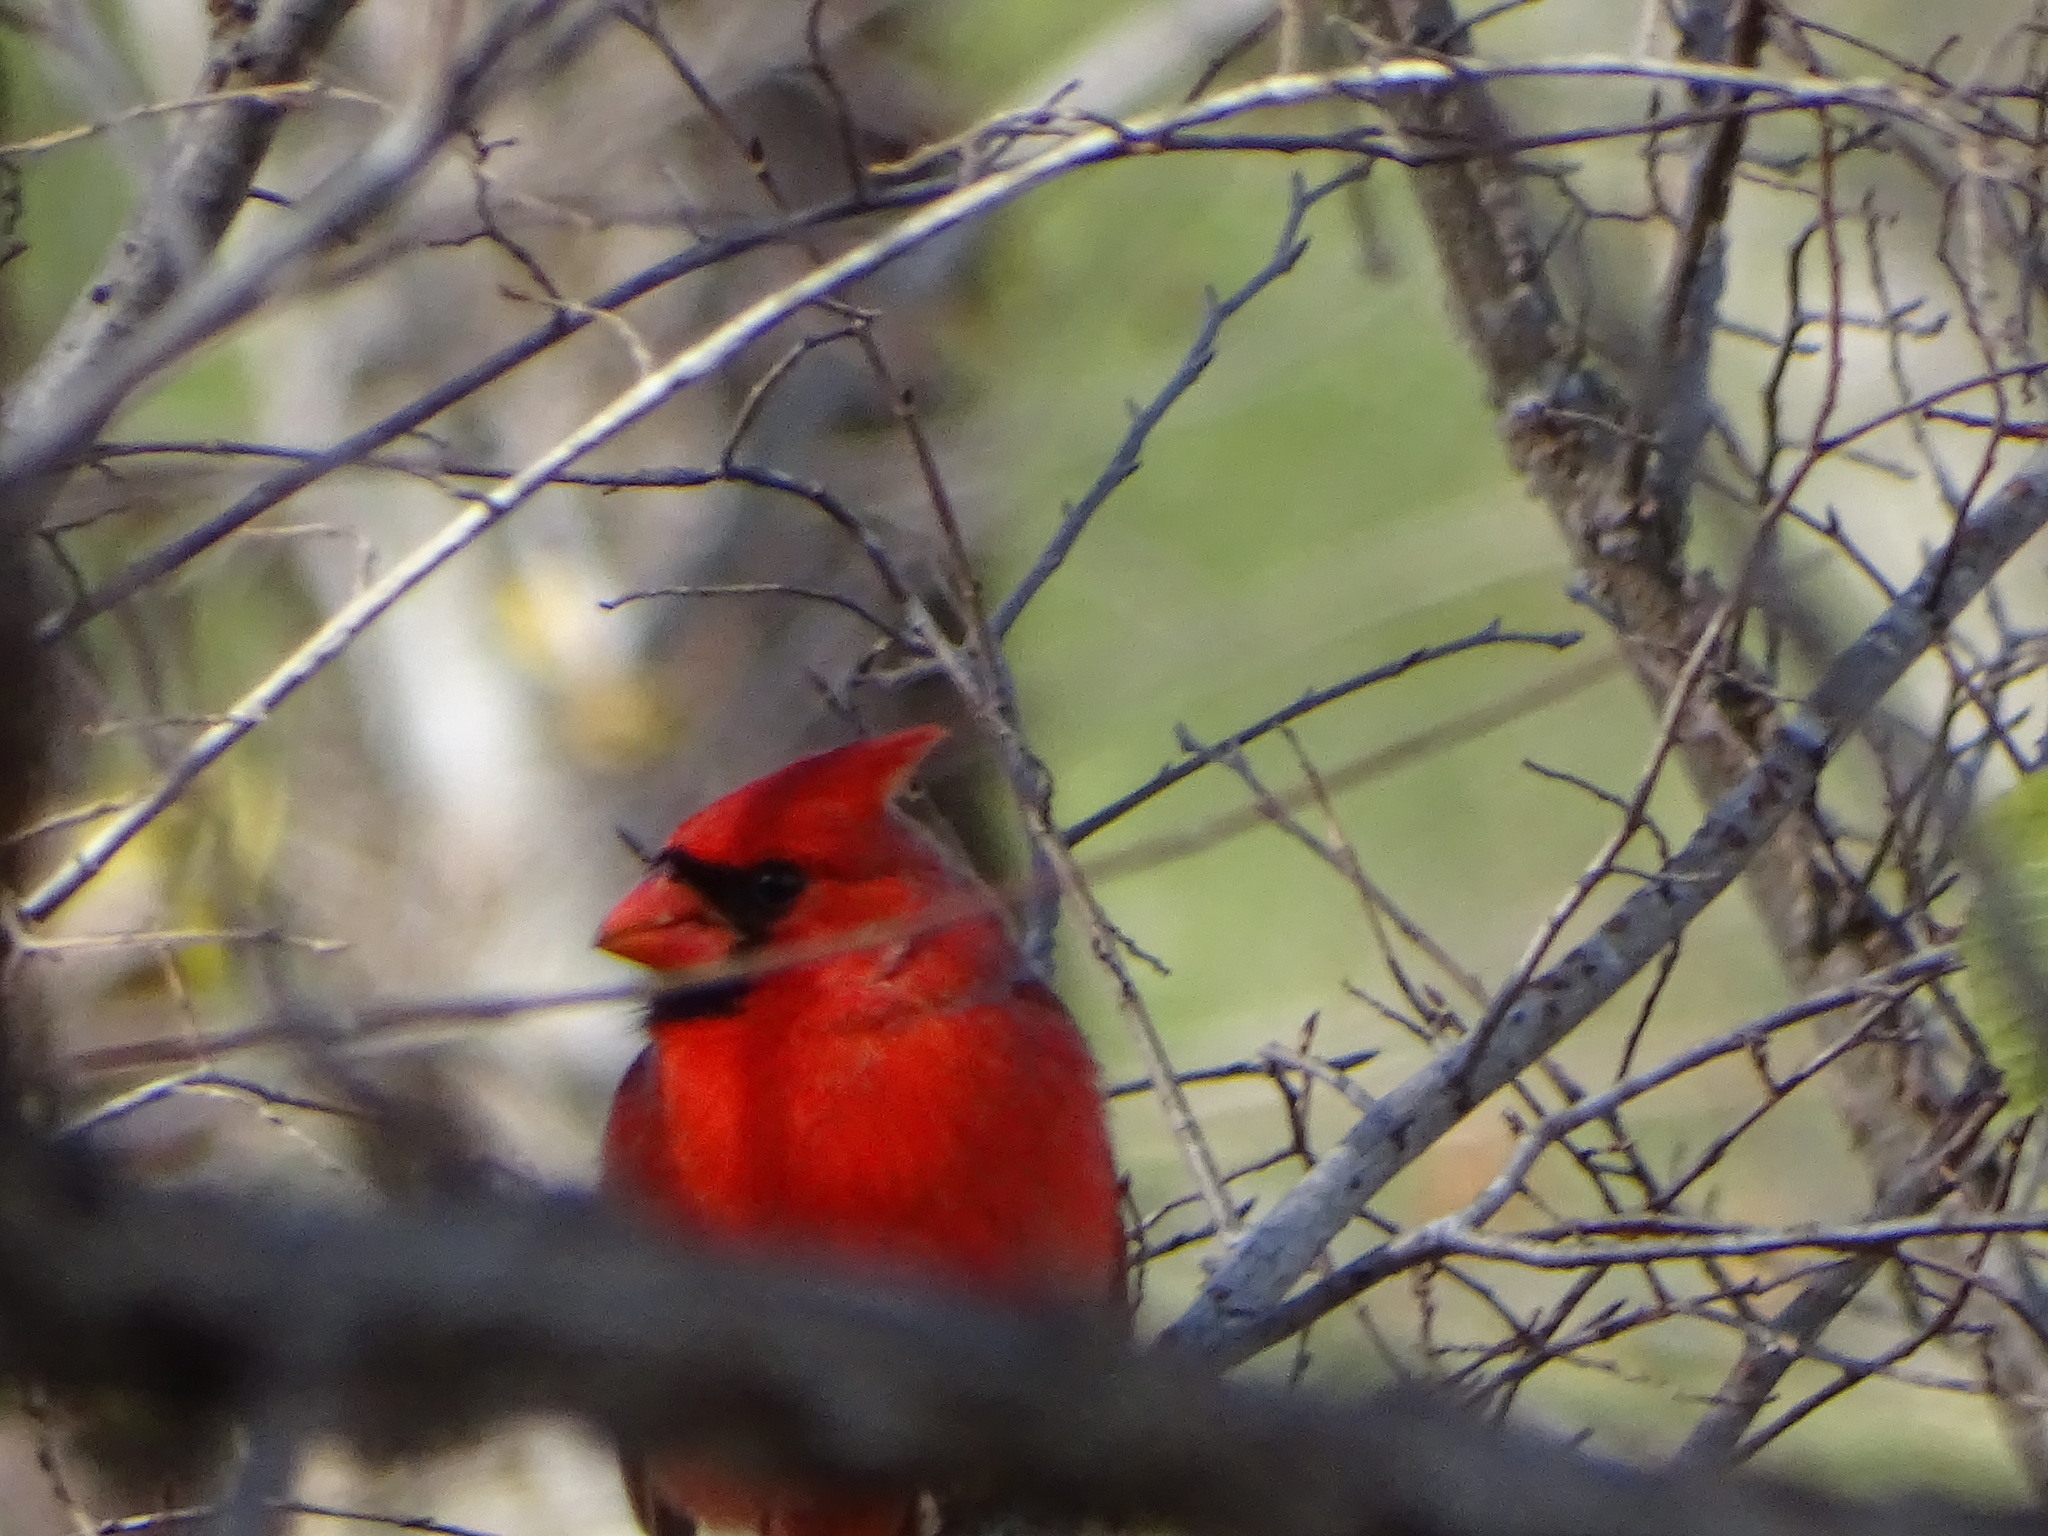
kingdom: Animalia
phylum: Chordata
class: Aves
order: Passeriformes
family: Cardinalidae
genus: Cardinalis
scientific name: Cardinalis cardinalis
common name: Northern cardinal
